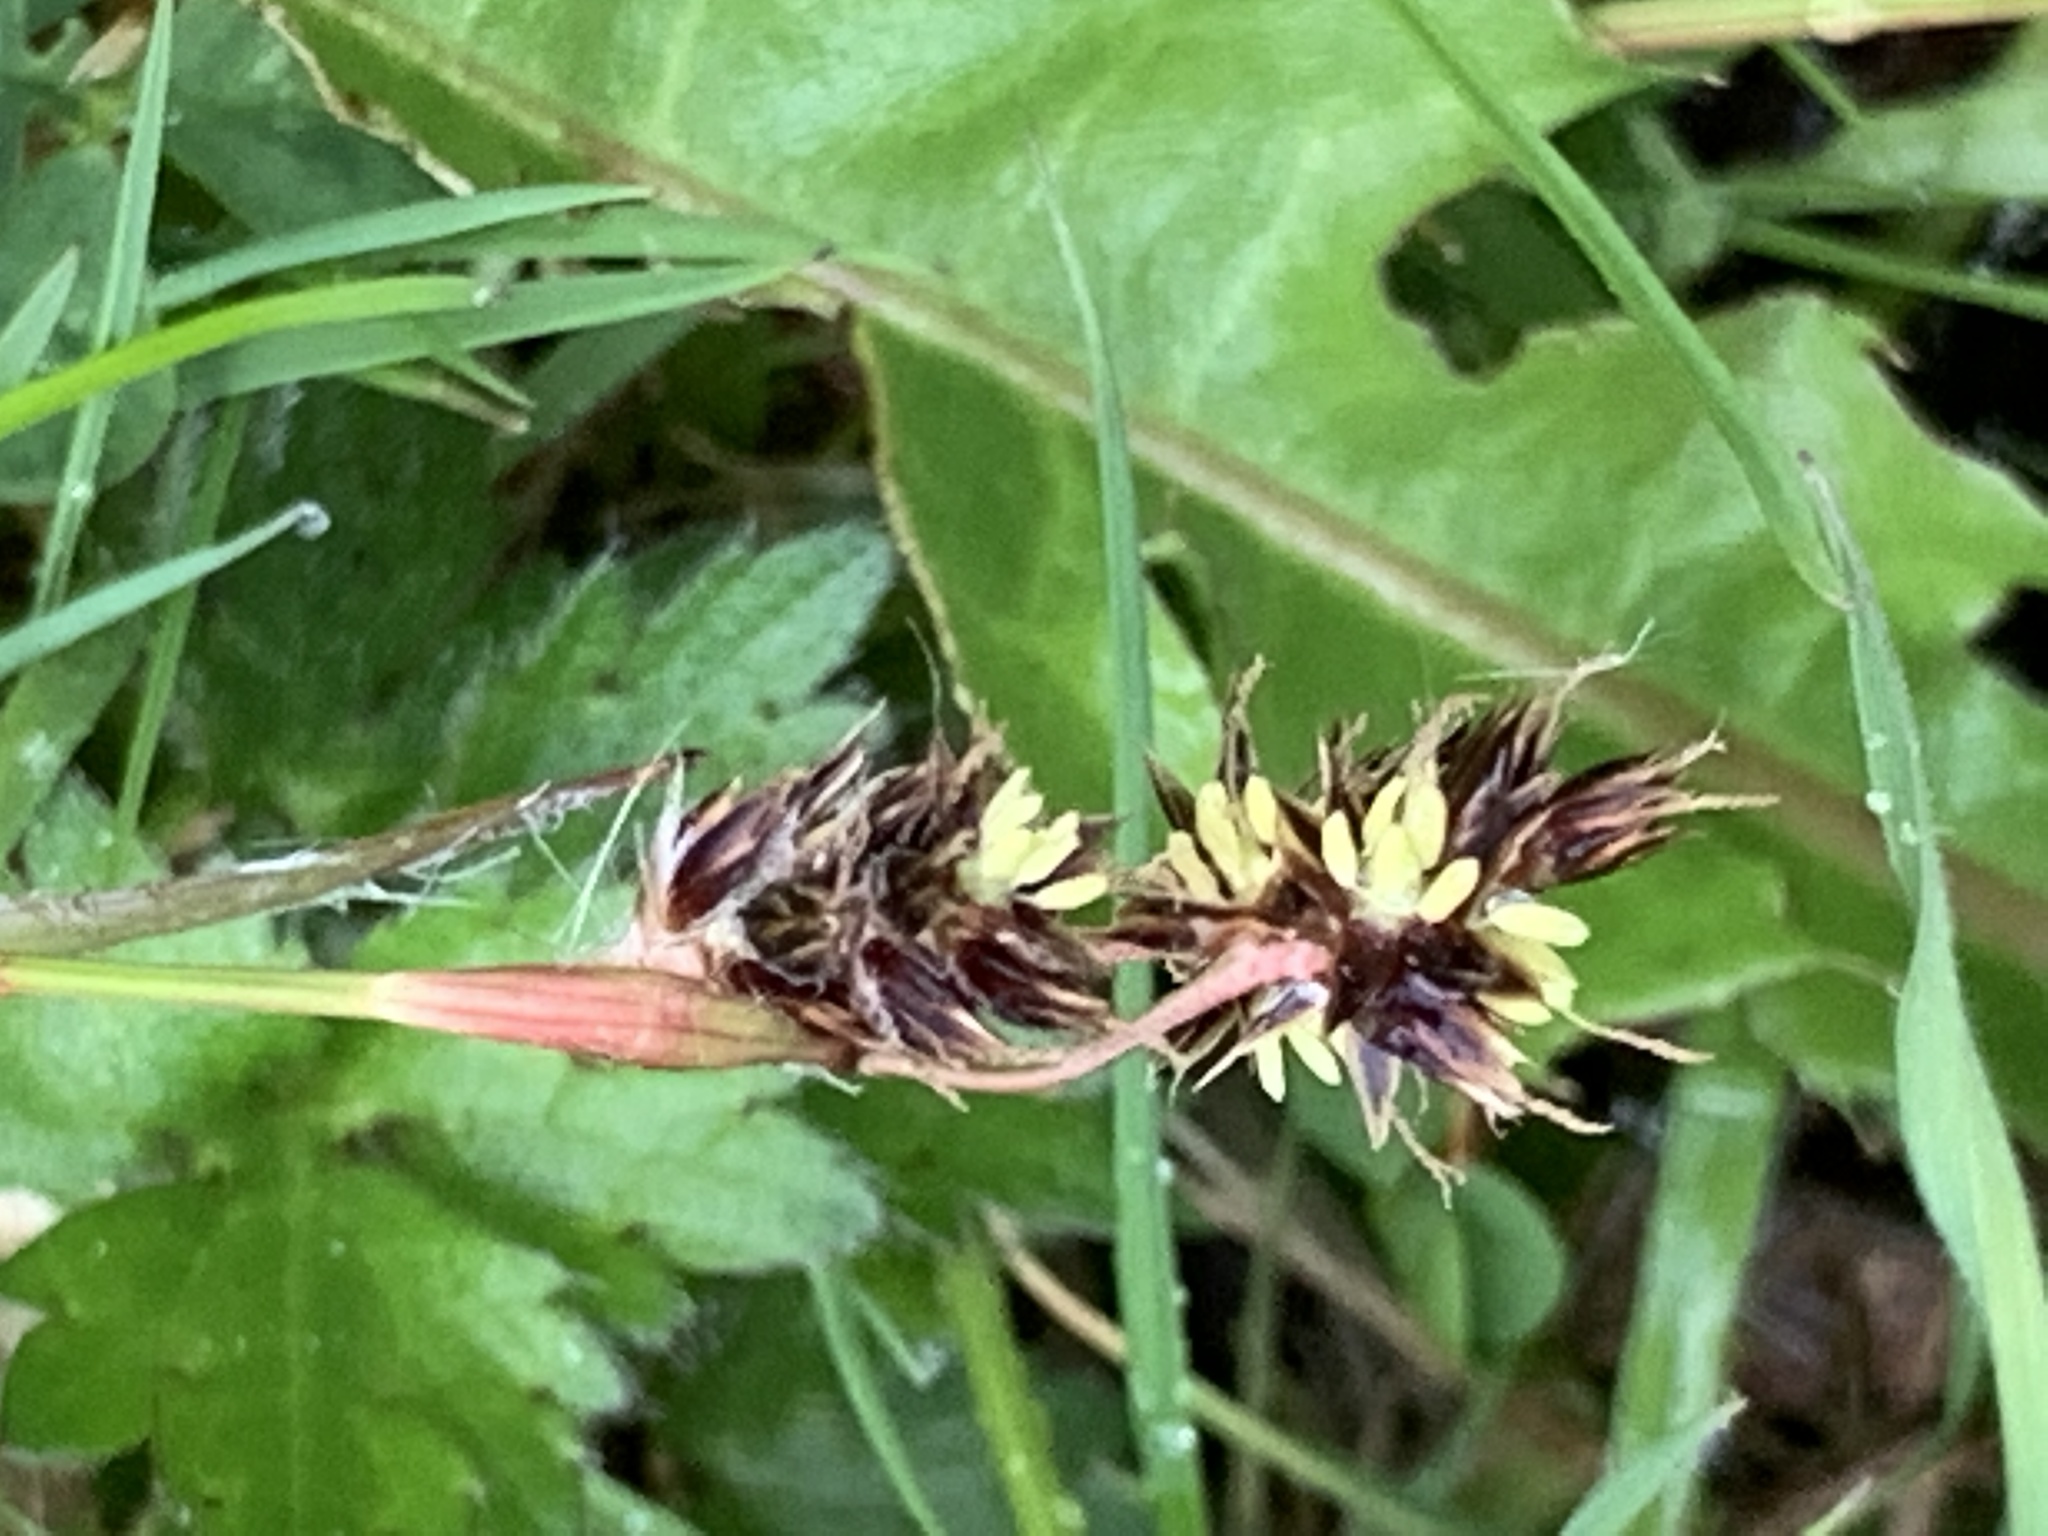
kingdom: Plantae
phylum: Tracheophyta
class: Liliopsida
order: Poales
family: Juncaceae
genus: Luzula
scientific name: Luzula campestris
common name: Field wood-rush
